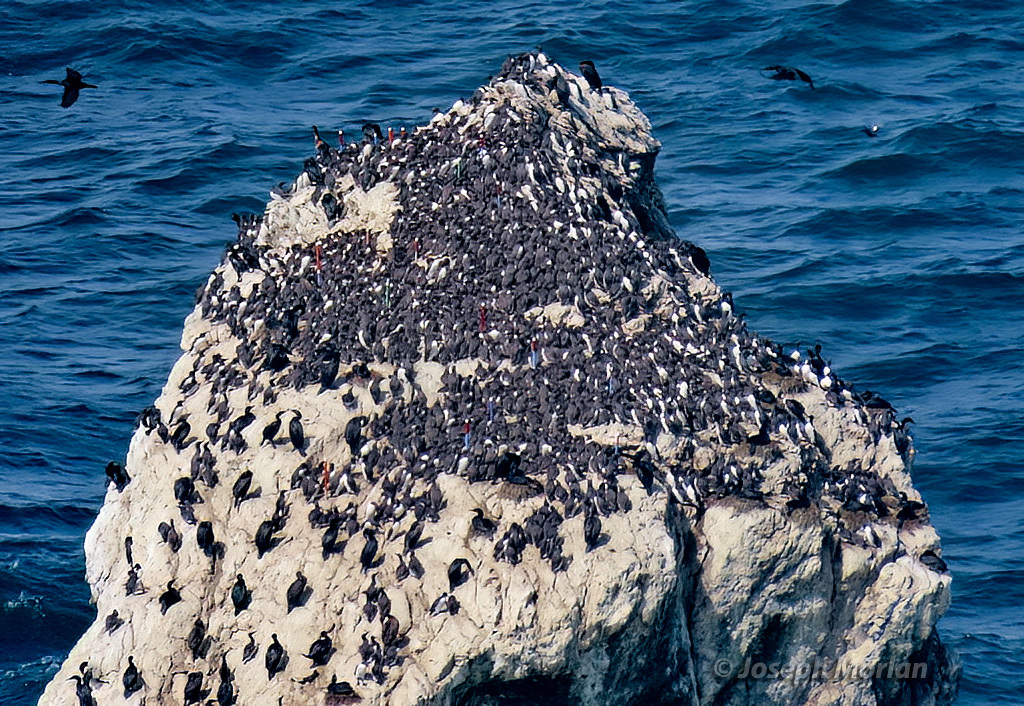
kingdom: Animalia
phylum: Chordata
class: Aves
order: Charadriiformes
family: Alcidae
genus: Uria
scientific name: Uria aalge
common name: Common murre
